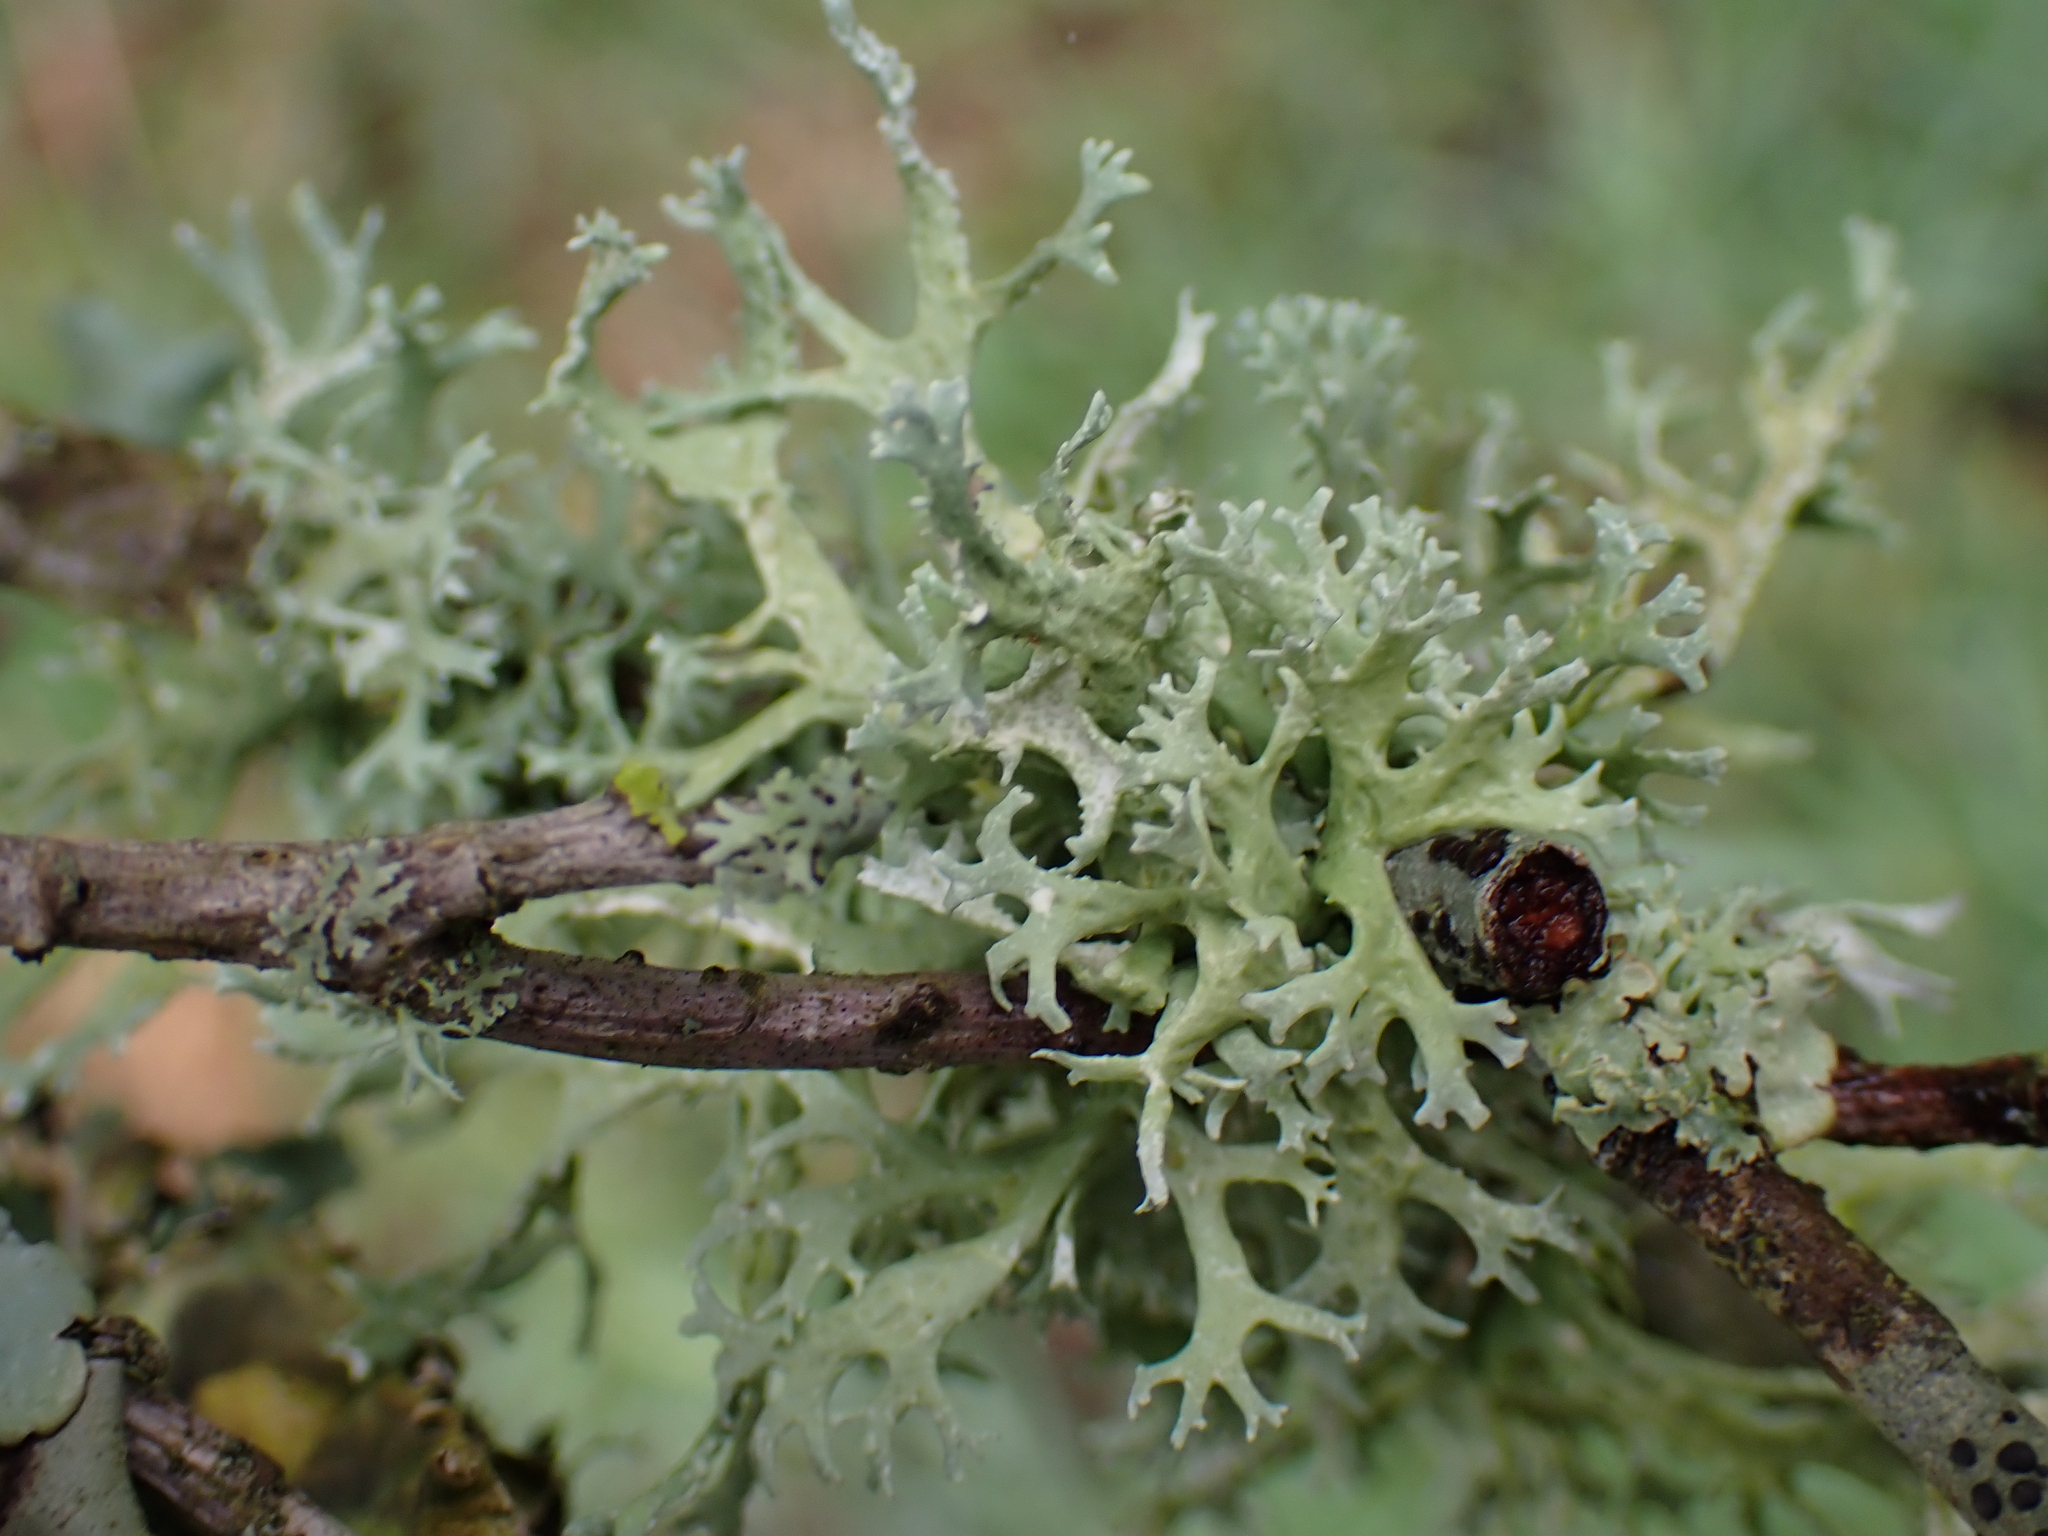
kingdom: Fungi
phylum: Ascomycota
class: Lecanoromycetes
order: Lecanorales
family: Parmeliaceae
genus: Evernia
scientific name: Evernia prunastri
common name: Oak moss
